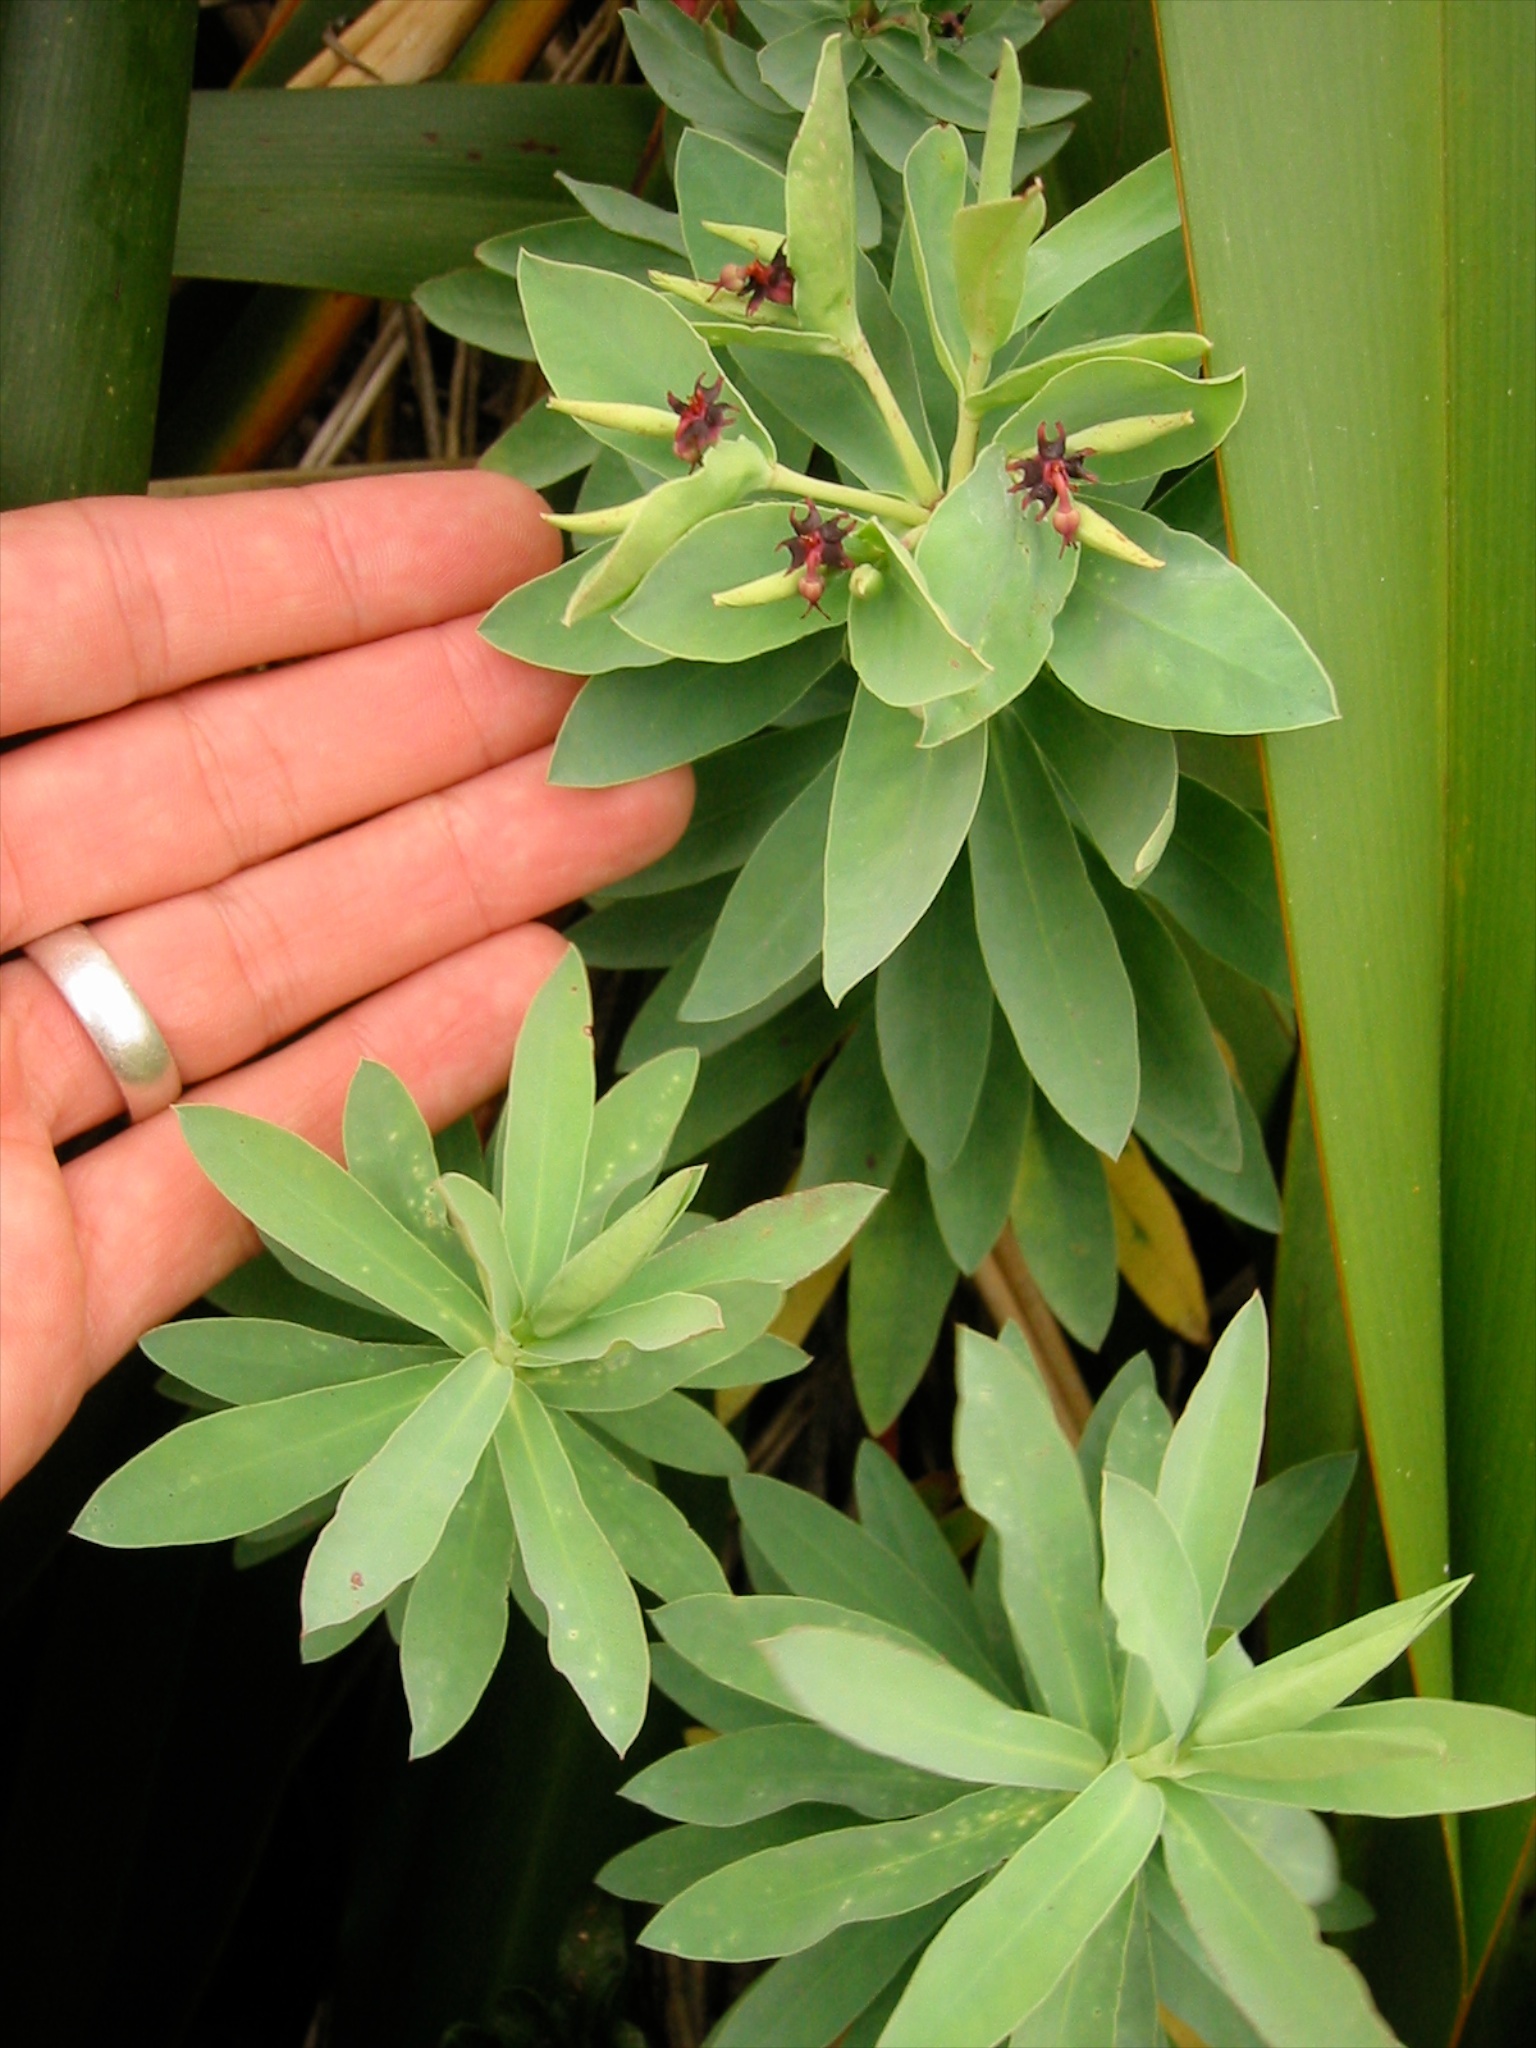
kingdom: Plantae
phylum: Tracheophyta
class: Magnoliopsida
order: Malpighiales
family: Euphorbiaceae
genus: Euphorbia
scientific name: Euphorbia glauca
